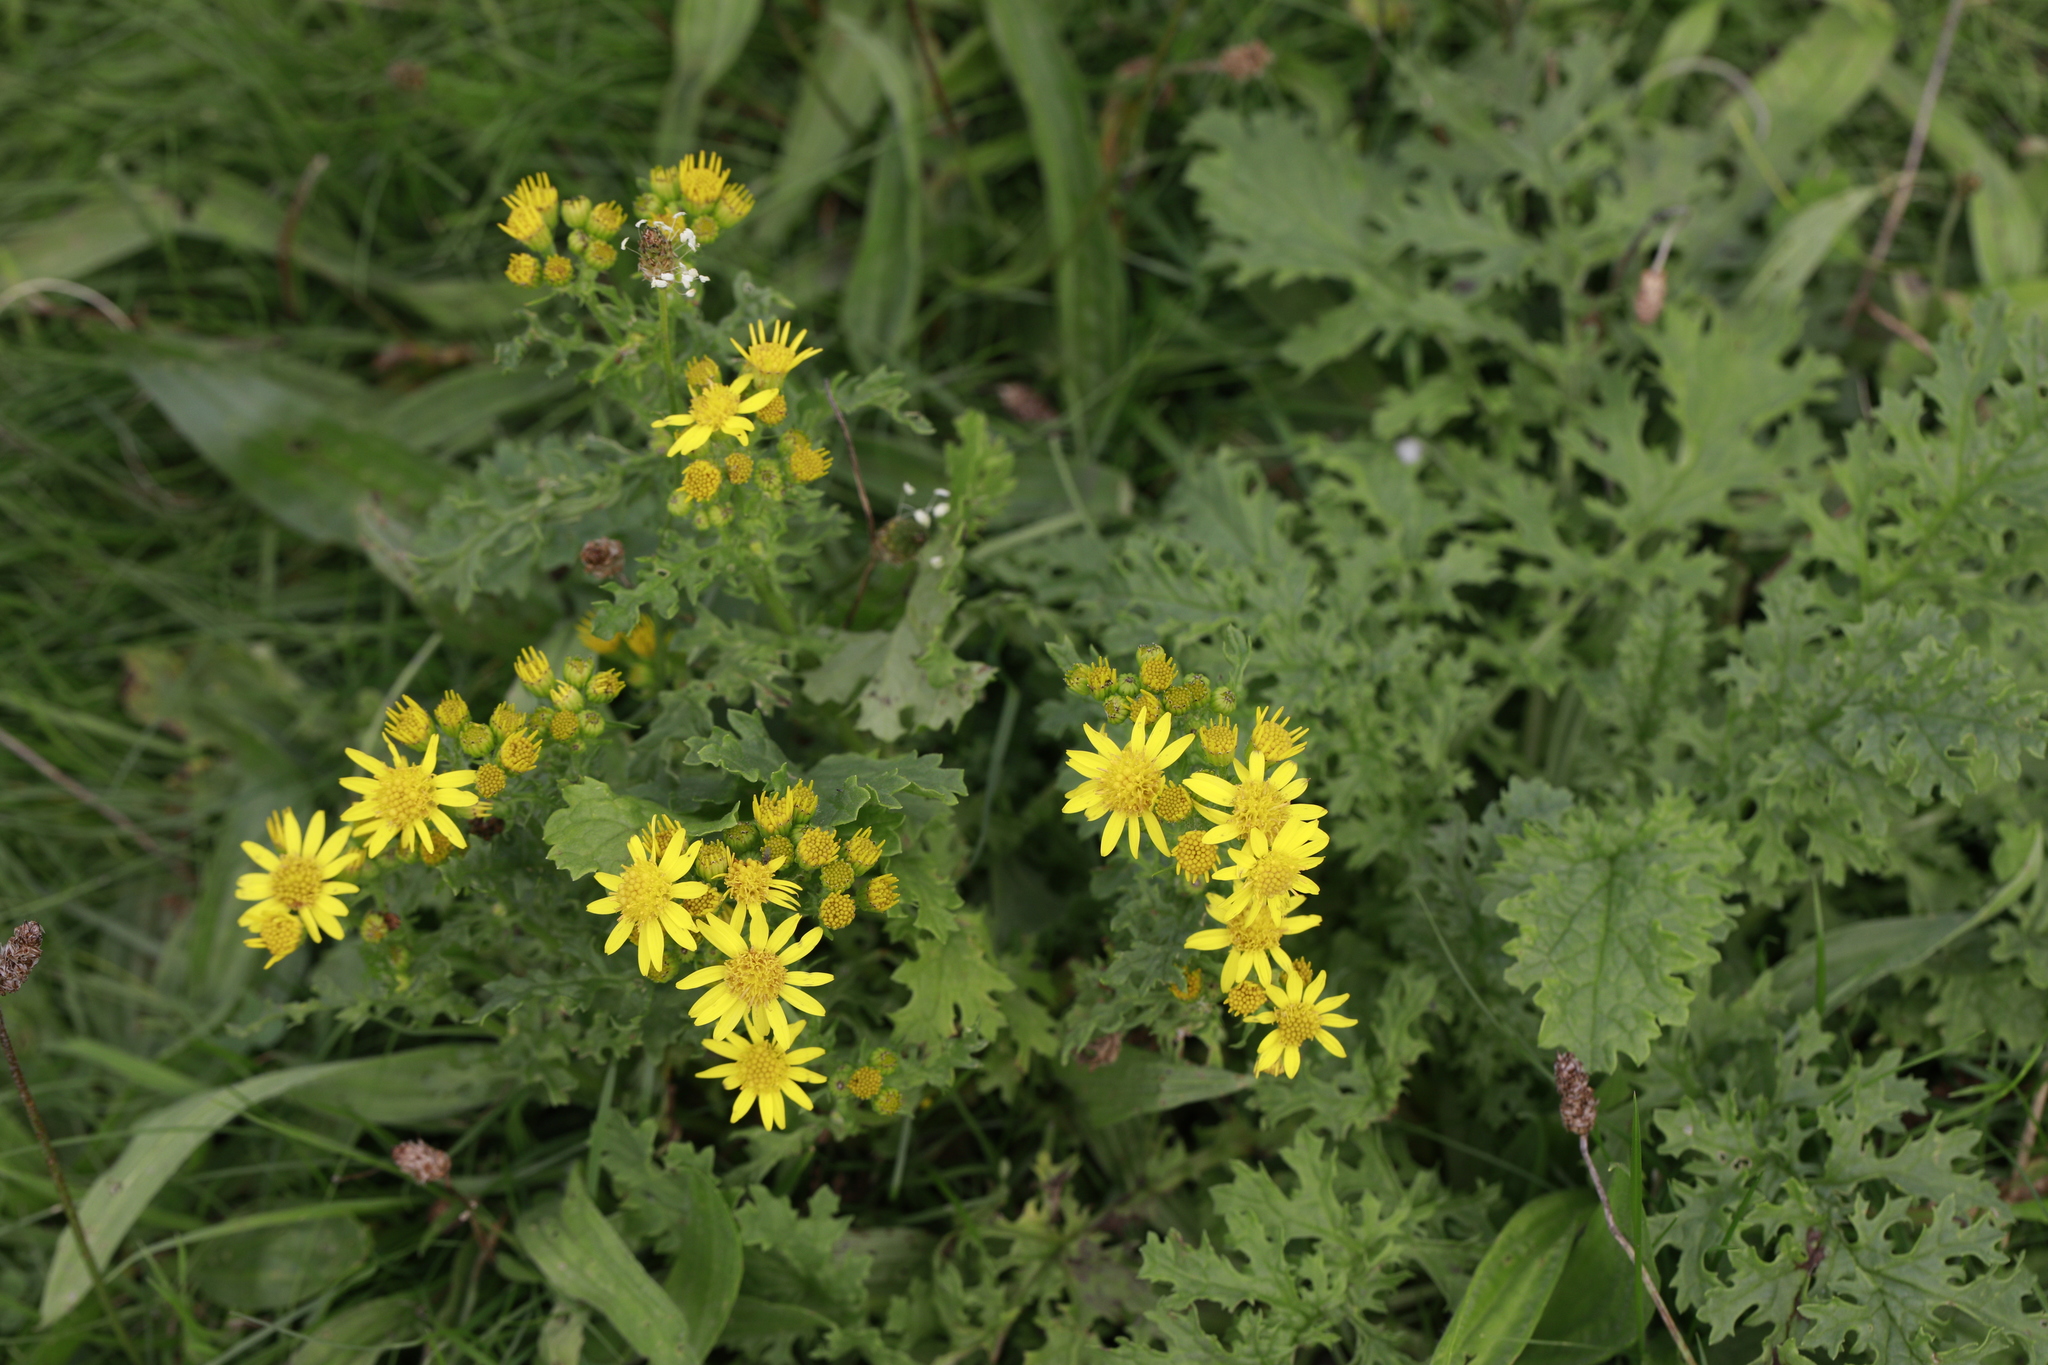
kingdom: Plantae
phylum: Tracheophyta
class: Magnoliopsida
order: Asterales
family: Asteraceae
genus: Jacobaea
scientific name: Jacobaea vulgaris
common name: Stinking willie
